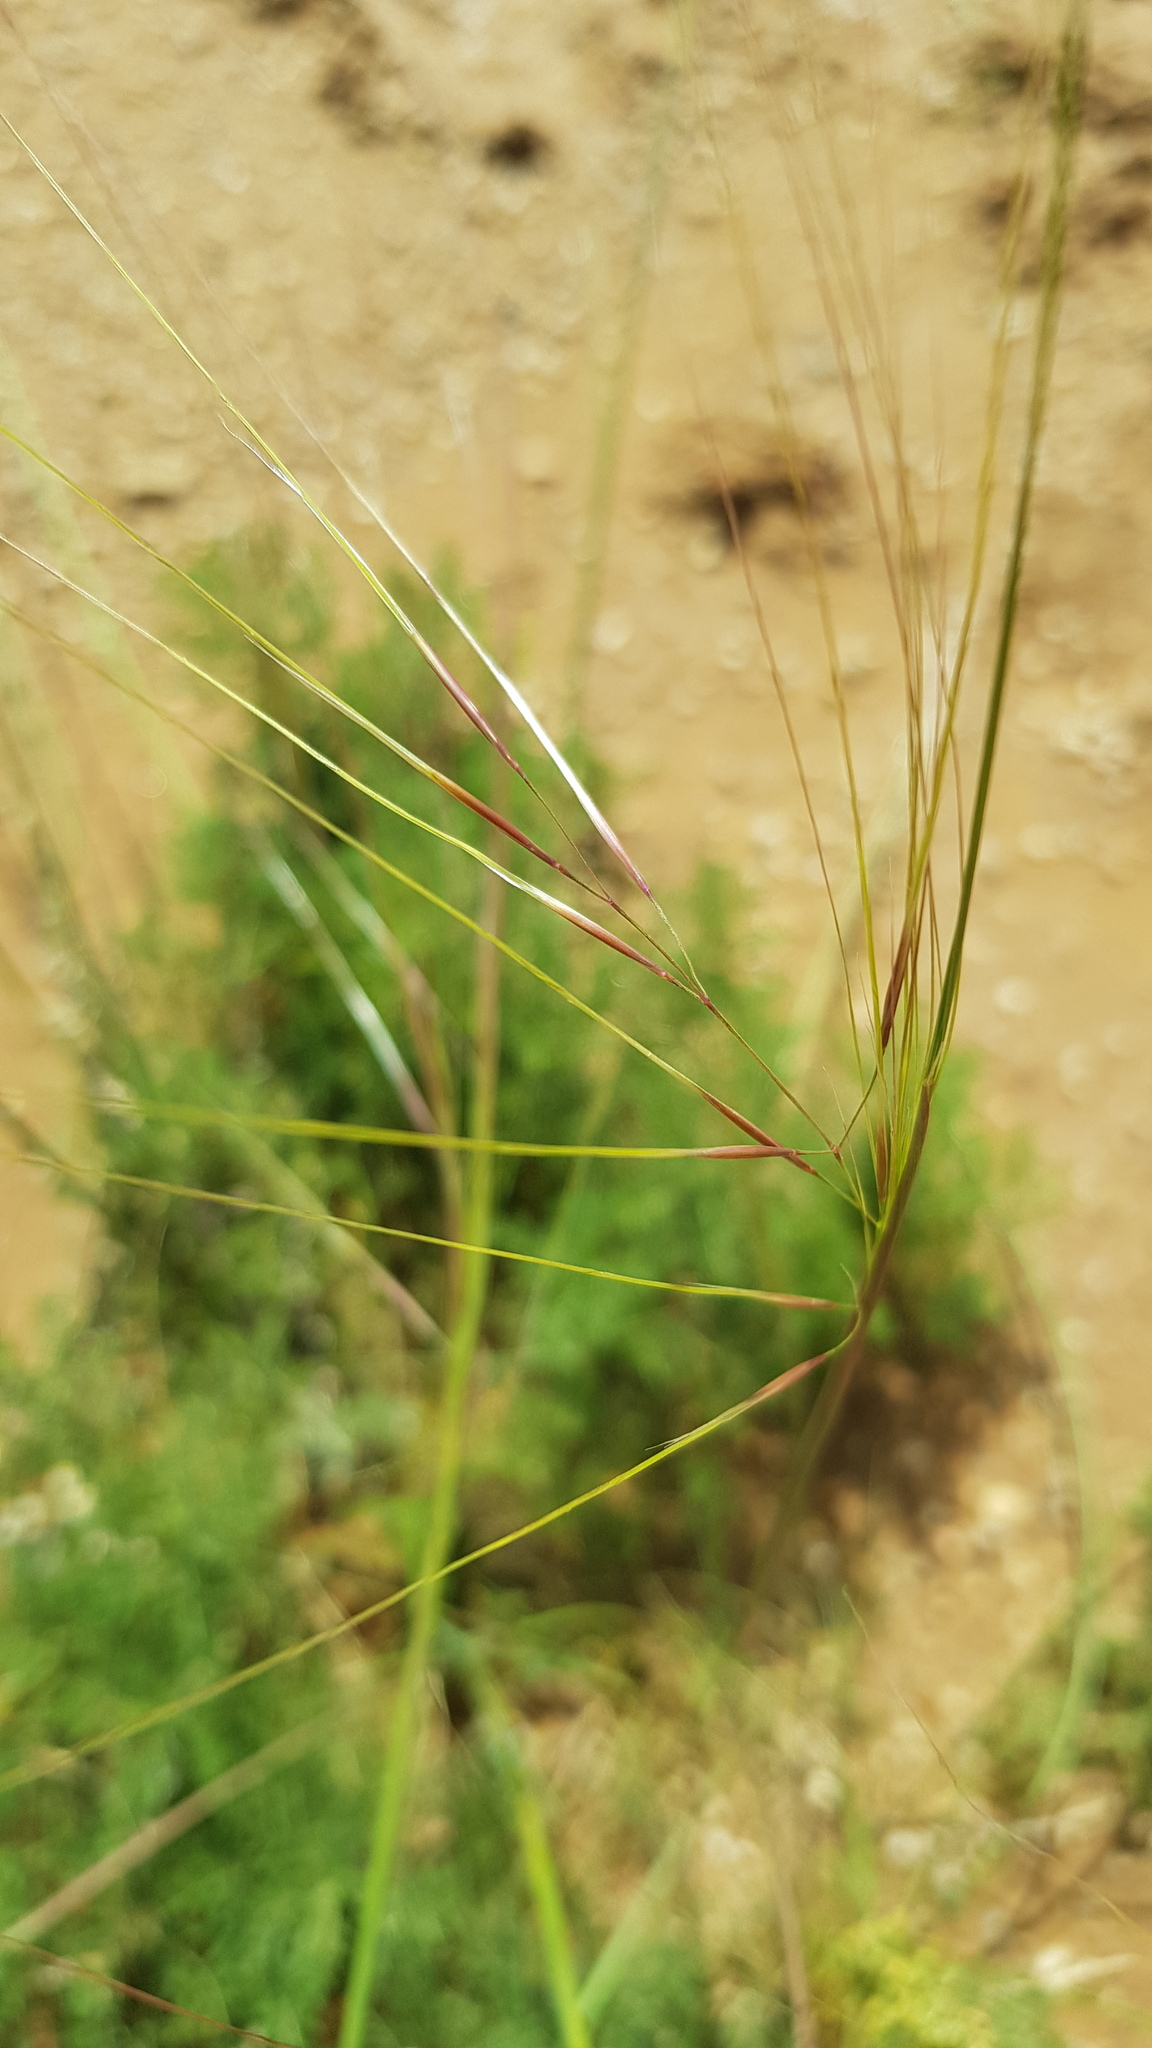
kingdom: Plantae
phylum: Tracheophyta
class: Liliopsida
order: Poales
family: Poaceae
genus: Stipa
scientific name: Stipa krylovii
